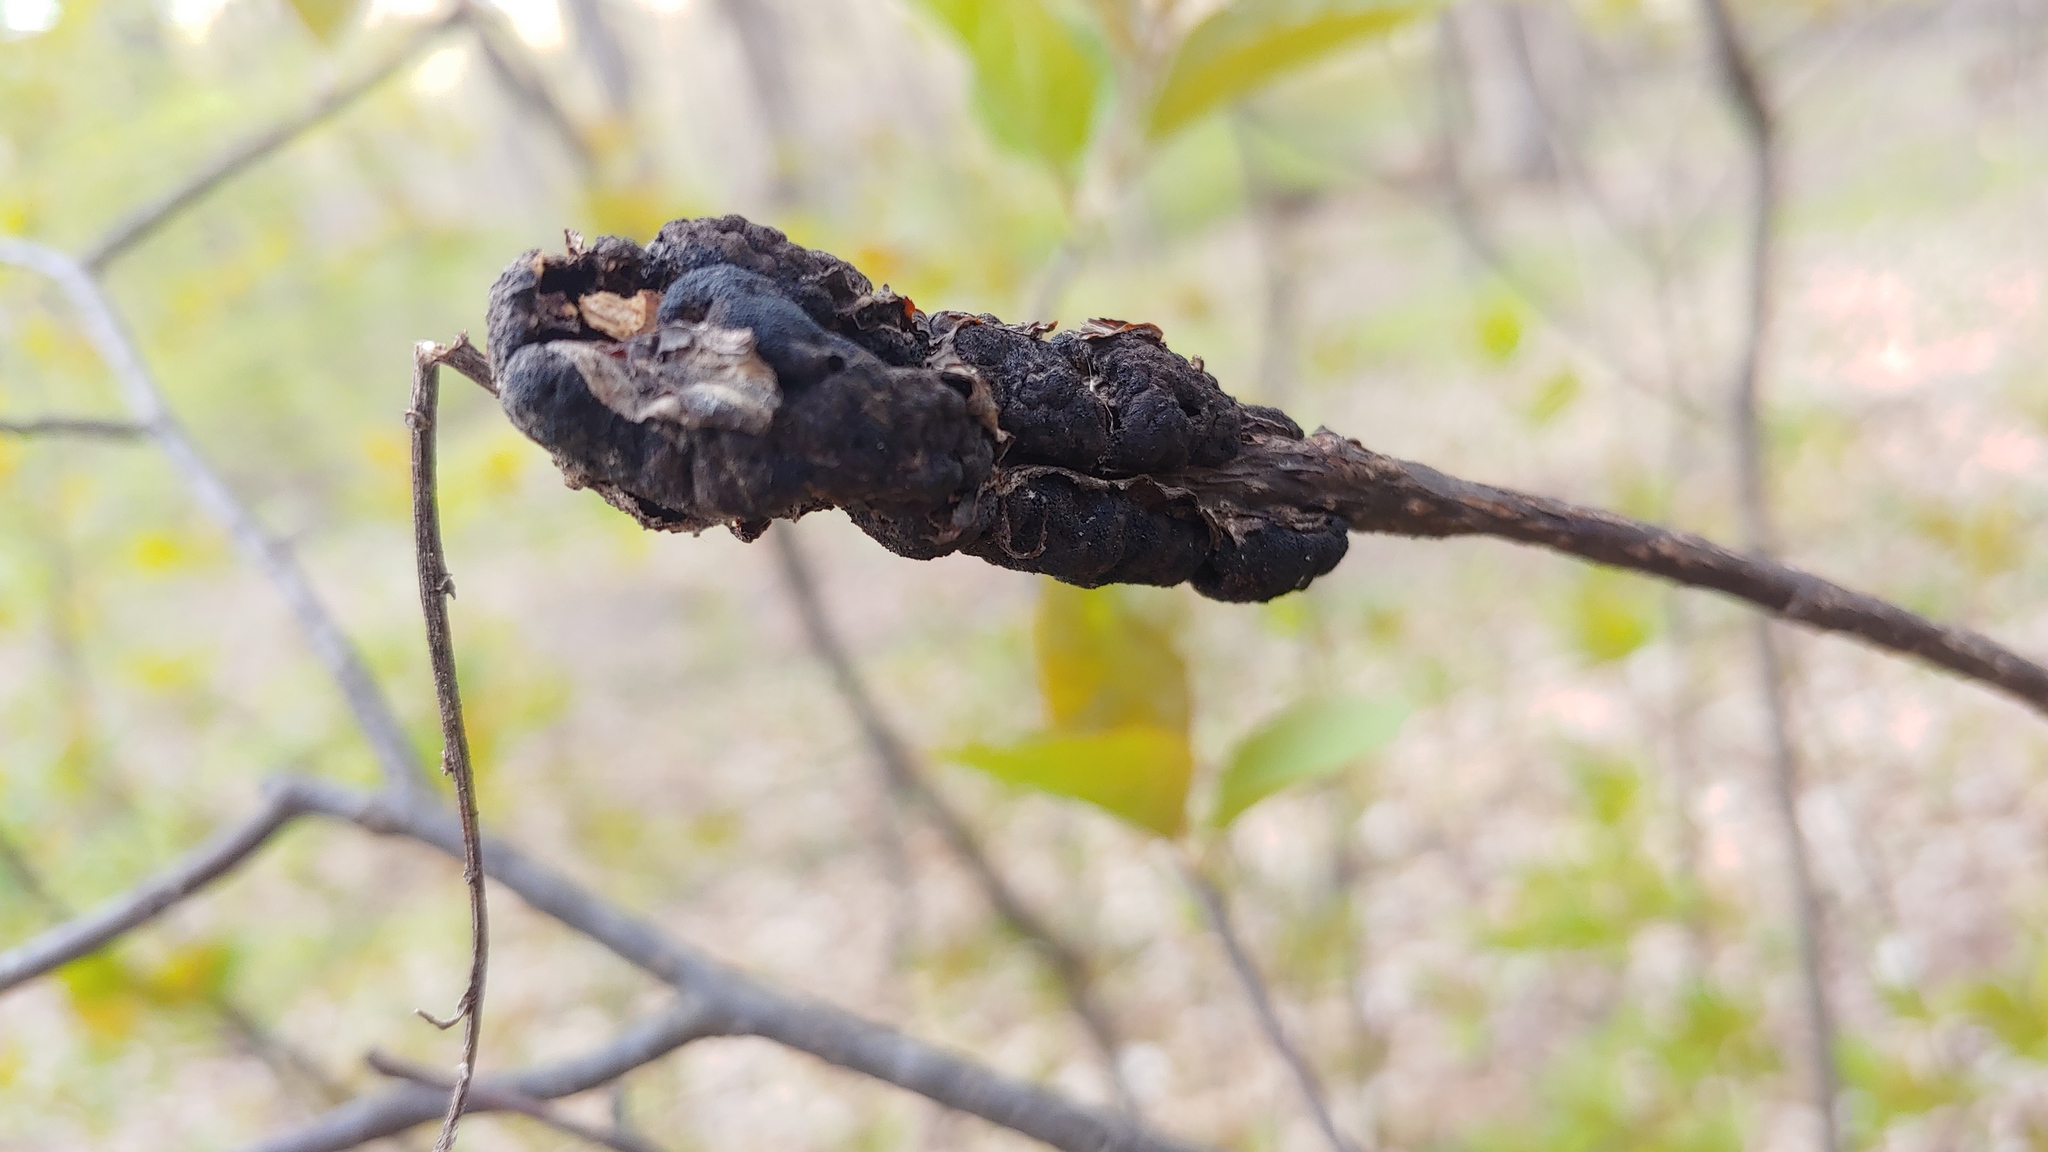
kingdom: Fungi
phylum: Ascomycota
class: Dothideomycetes
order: Venturiales
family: Venturiaceae
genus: Apiosporina
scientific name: Apiosporina morbosa
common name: Black knot
